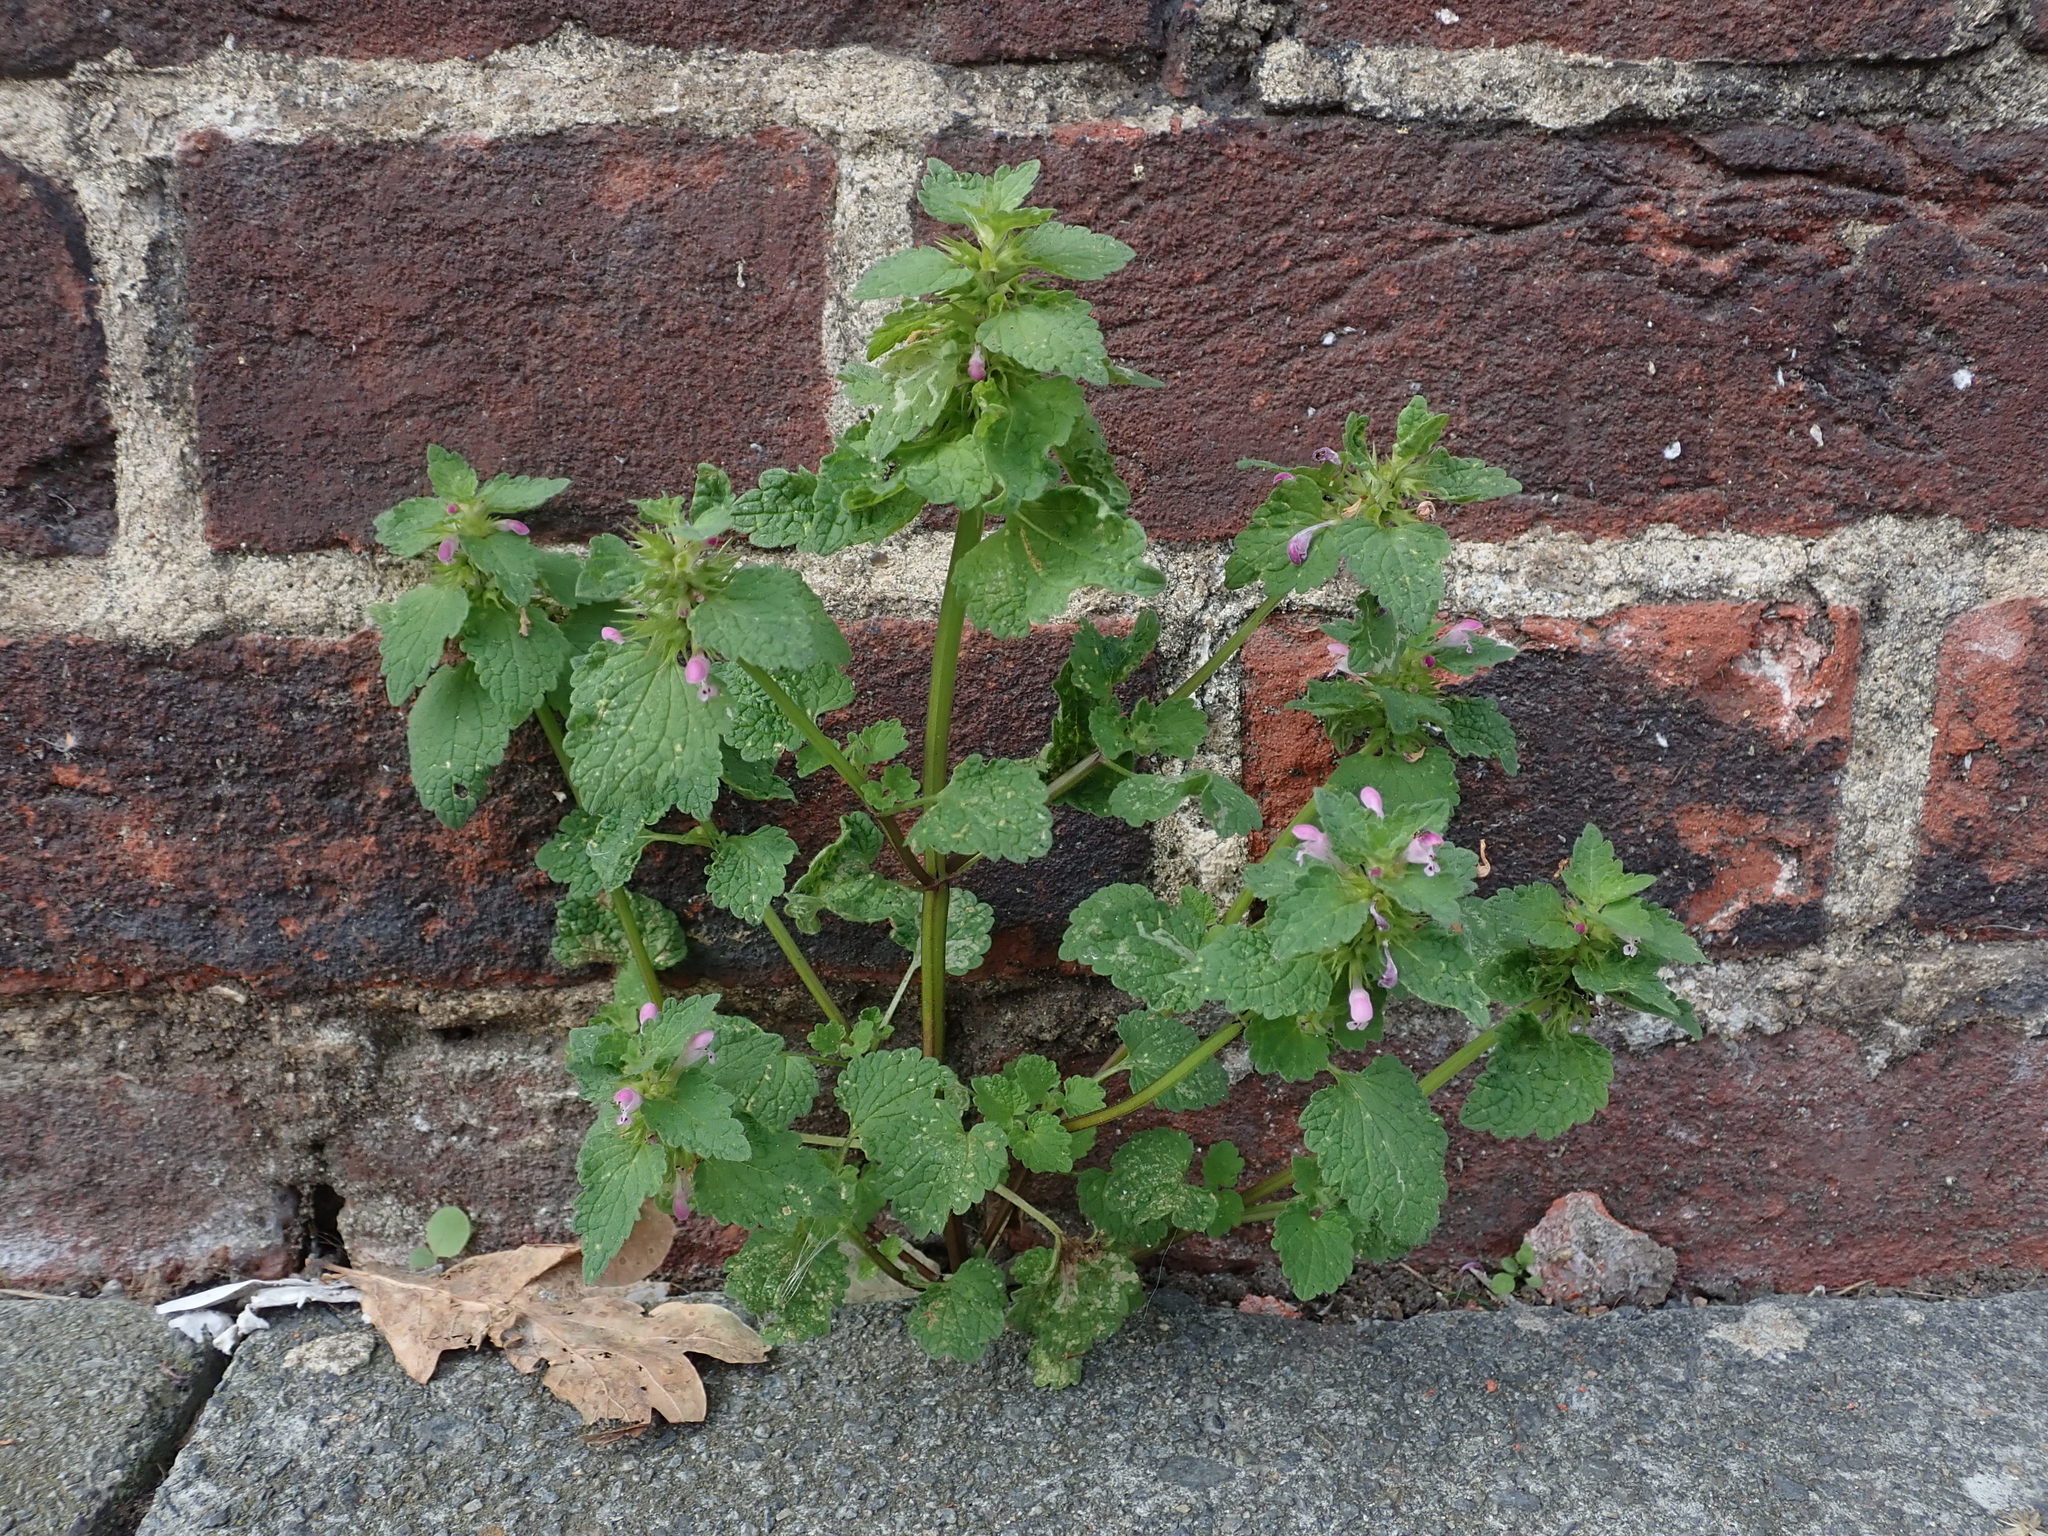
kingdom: Plantae
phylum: Tracheophyta
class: Magnoliopsida
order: Lamiales
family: Lamiaceae
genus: Lamium
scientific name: Lamium purpureum
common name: Red dead-nettle
